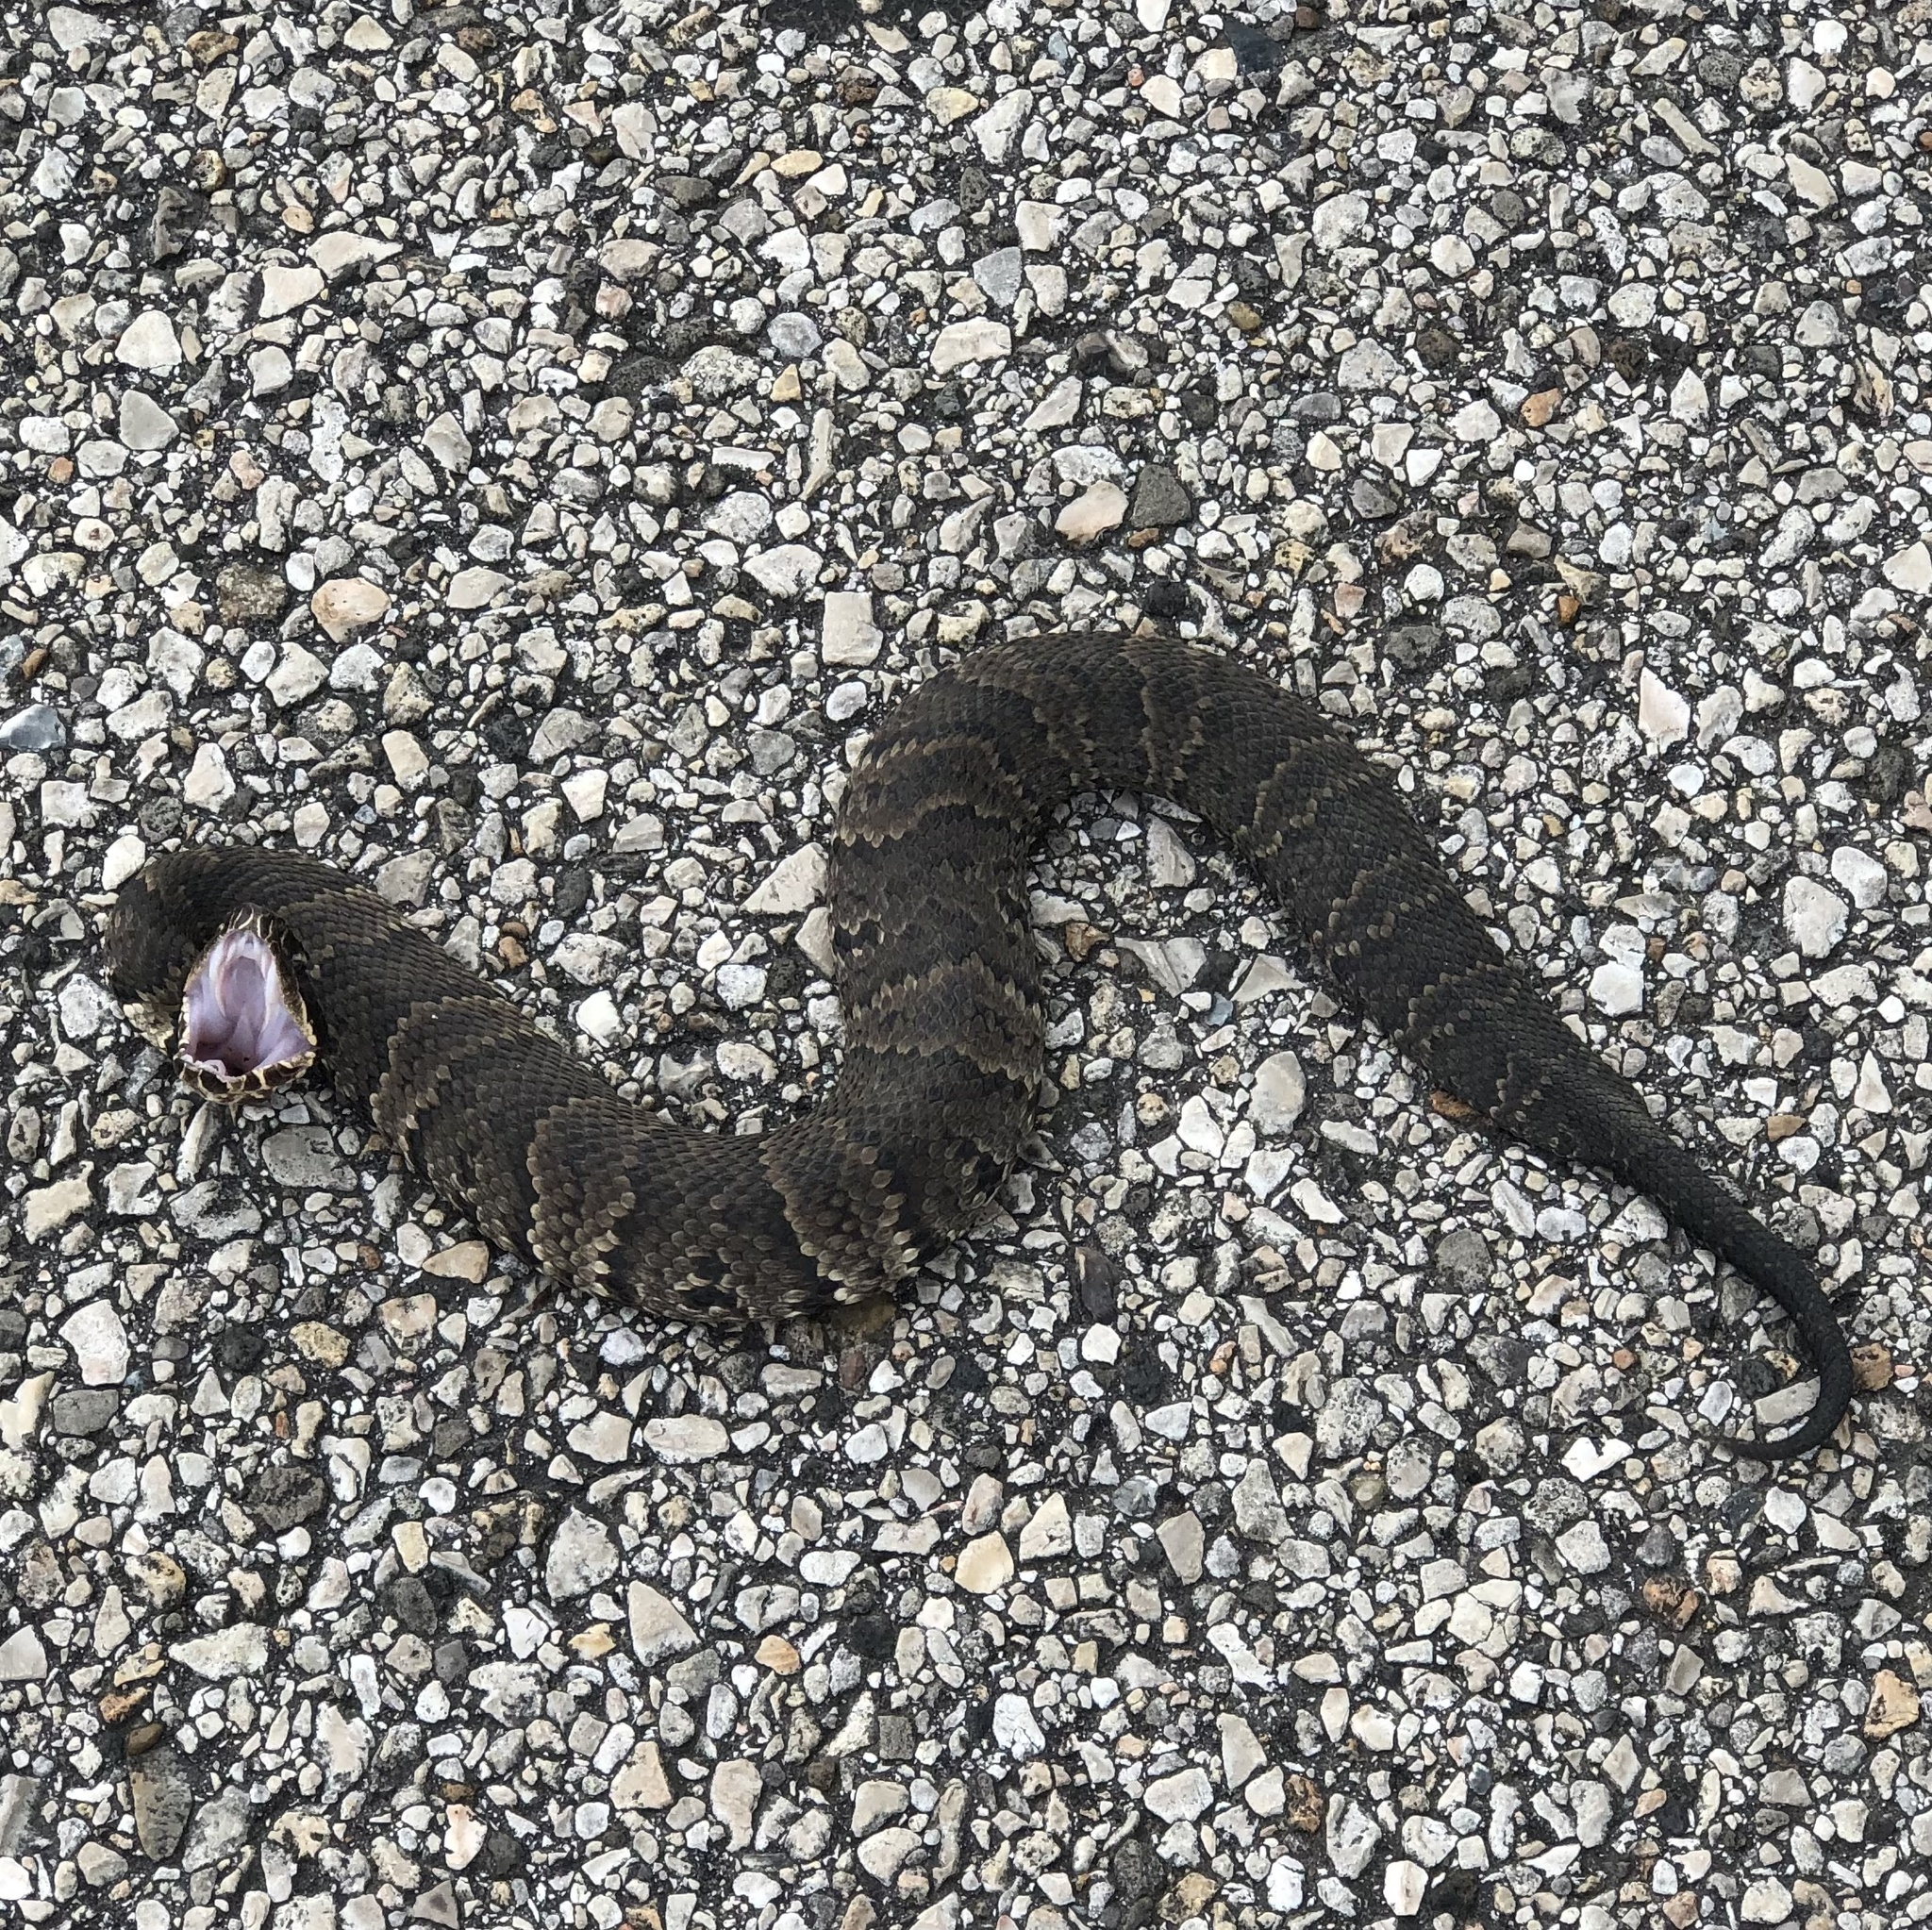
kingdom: Animalia
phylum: Chordata
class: Squamata
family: Viperidae
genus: Agkistrodon
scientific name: Agkistrodon piscivorus
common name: Cottonmouth
